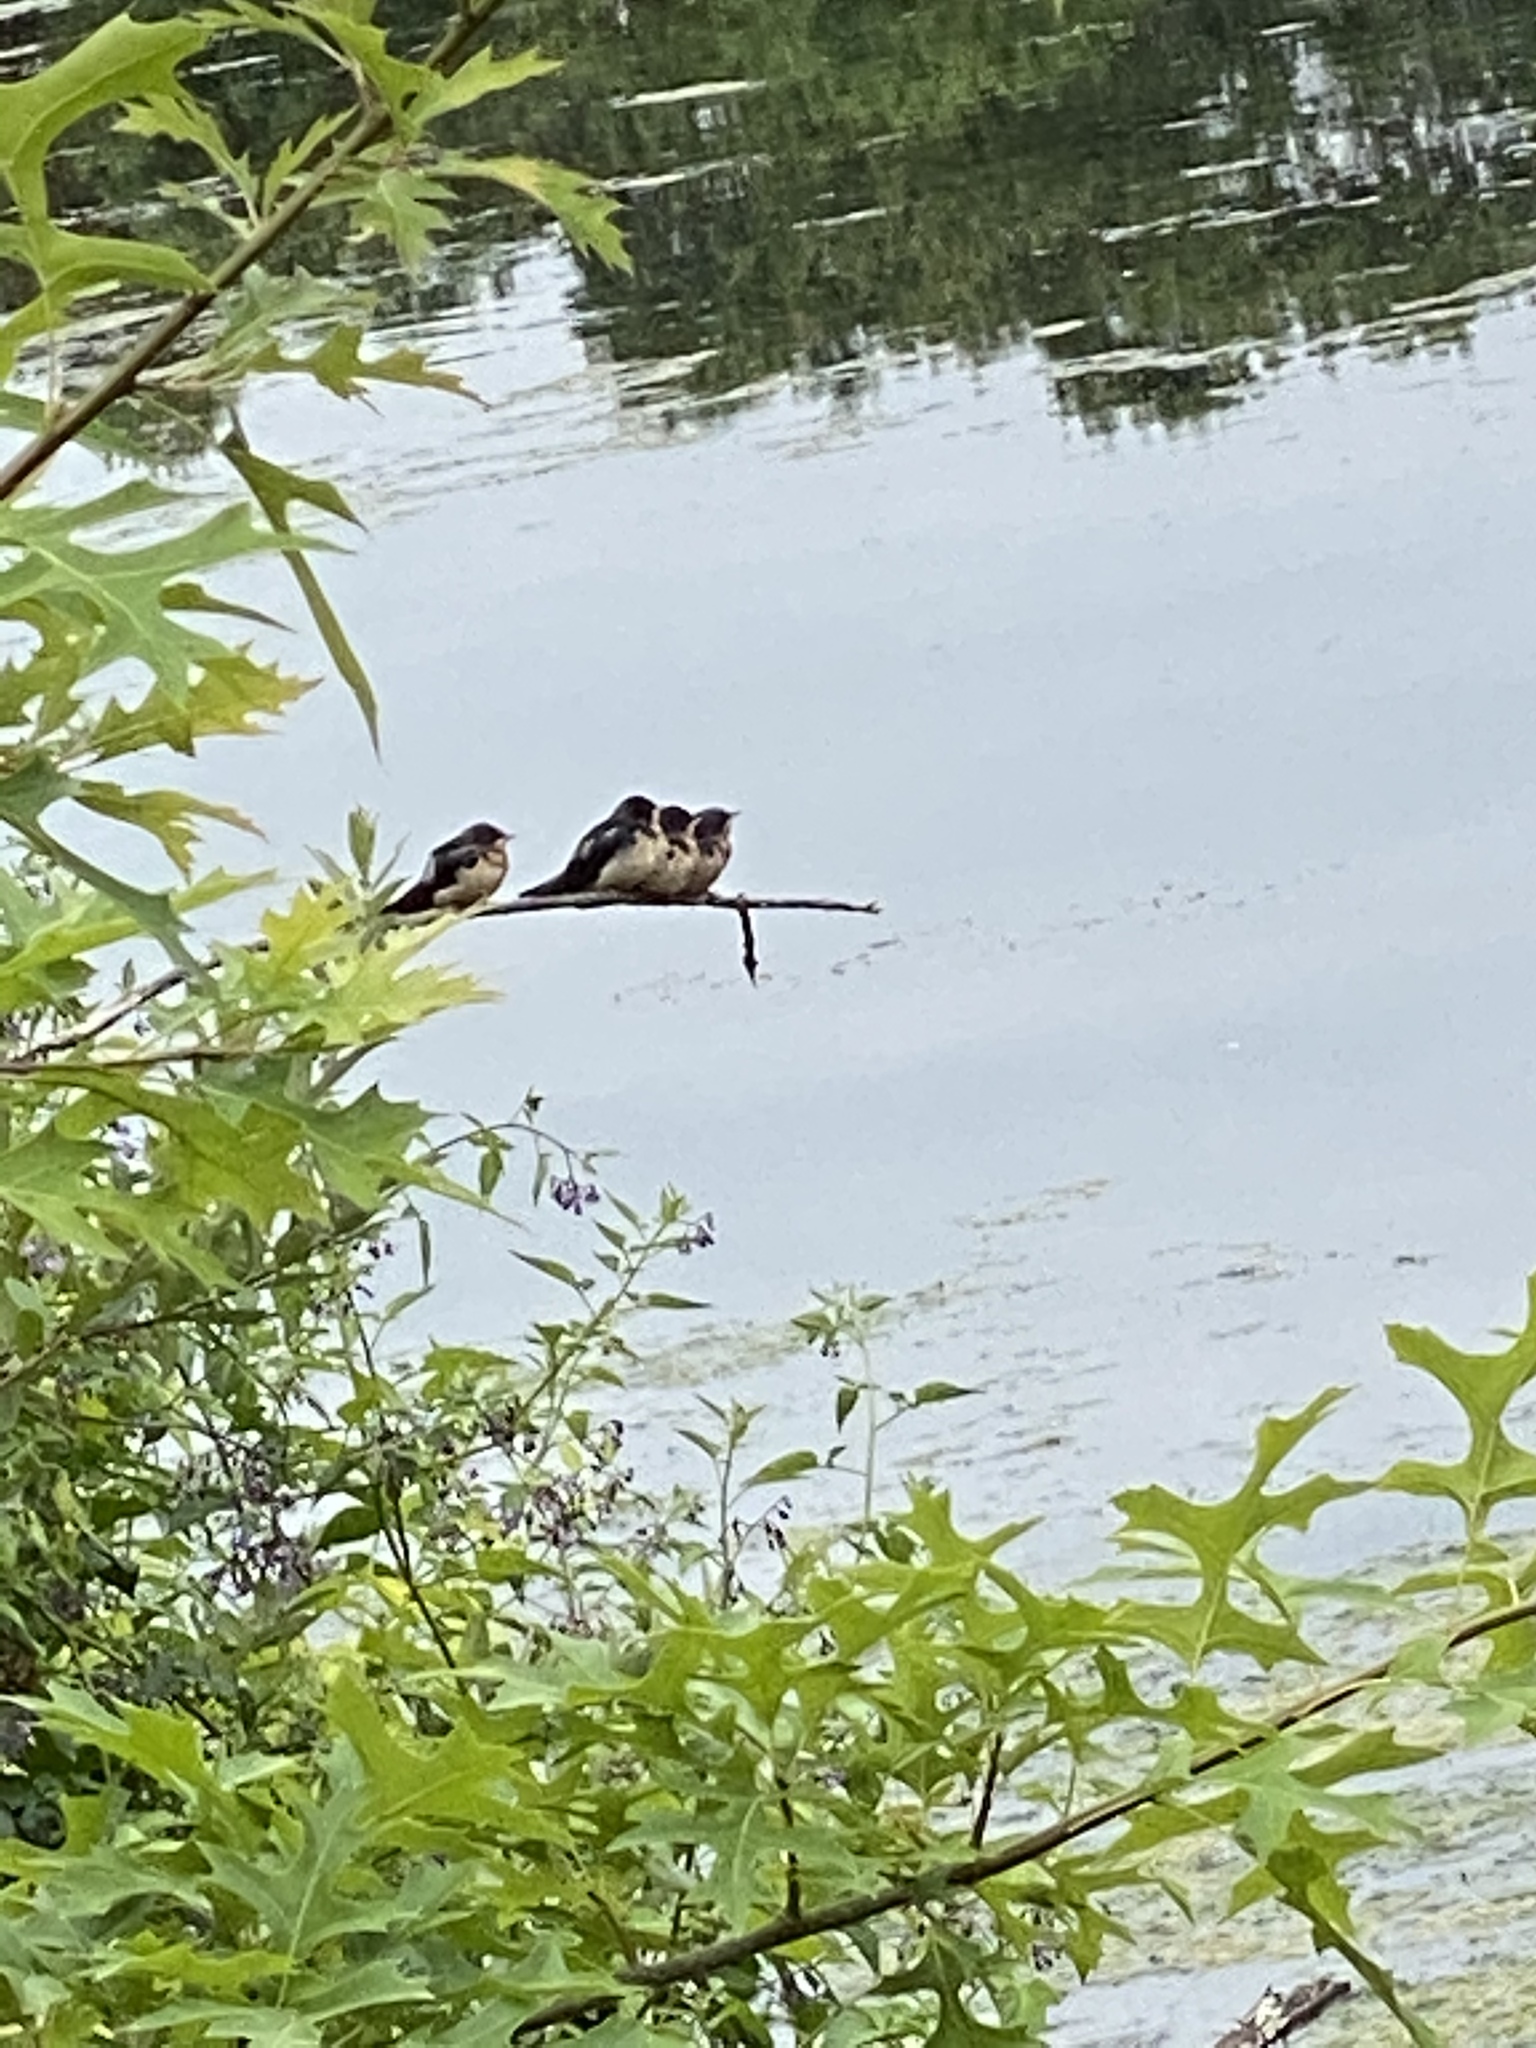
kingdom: Animalia
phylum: Chordata
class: Aves
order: Passeriformes
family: Hirundinidae
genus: Hirundo
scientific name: Hirundo rustica
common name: Barn swallow
